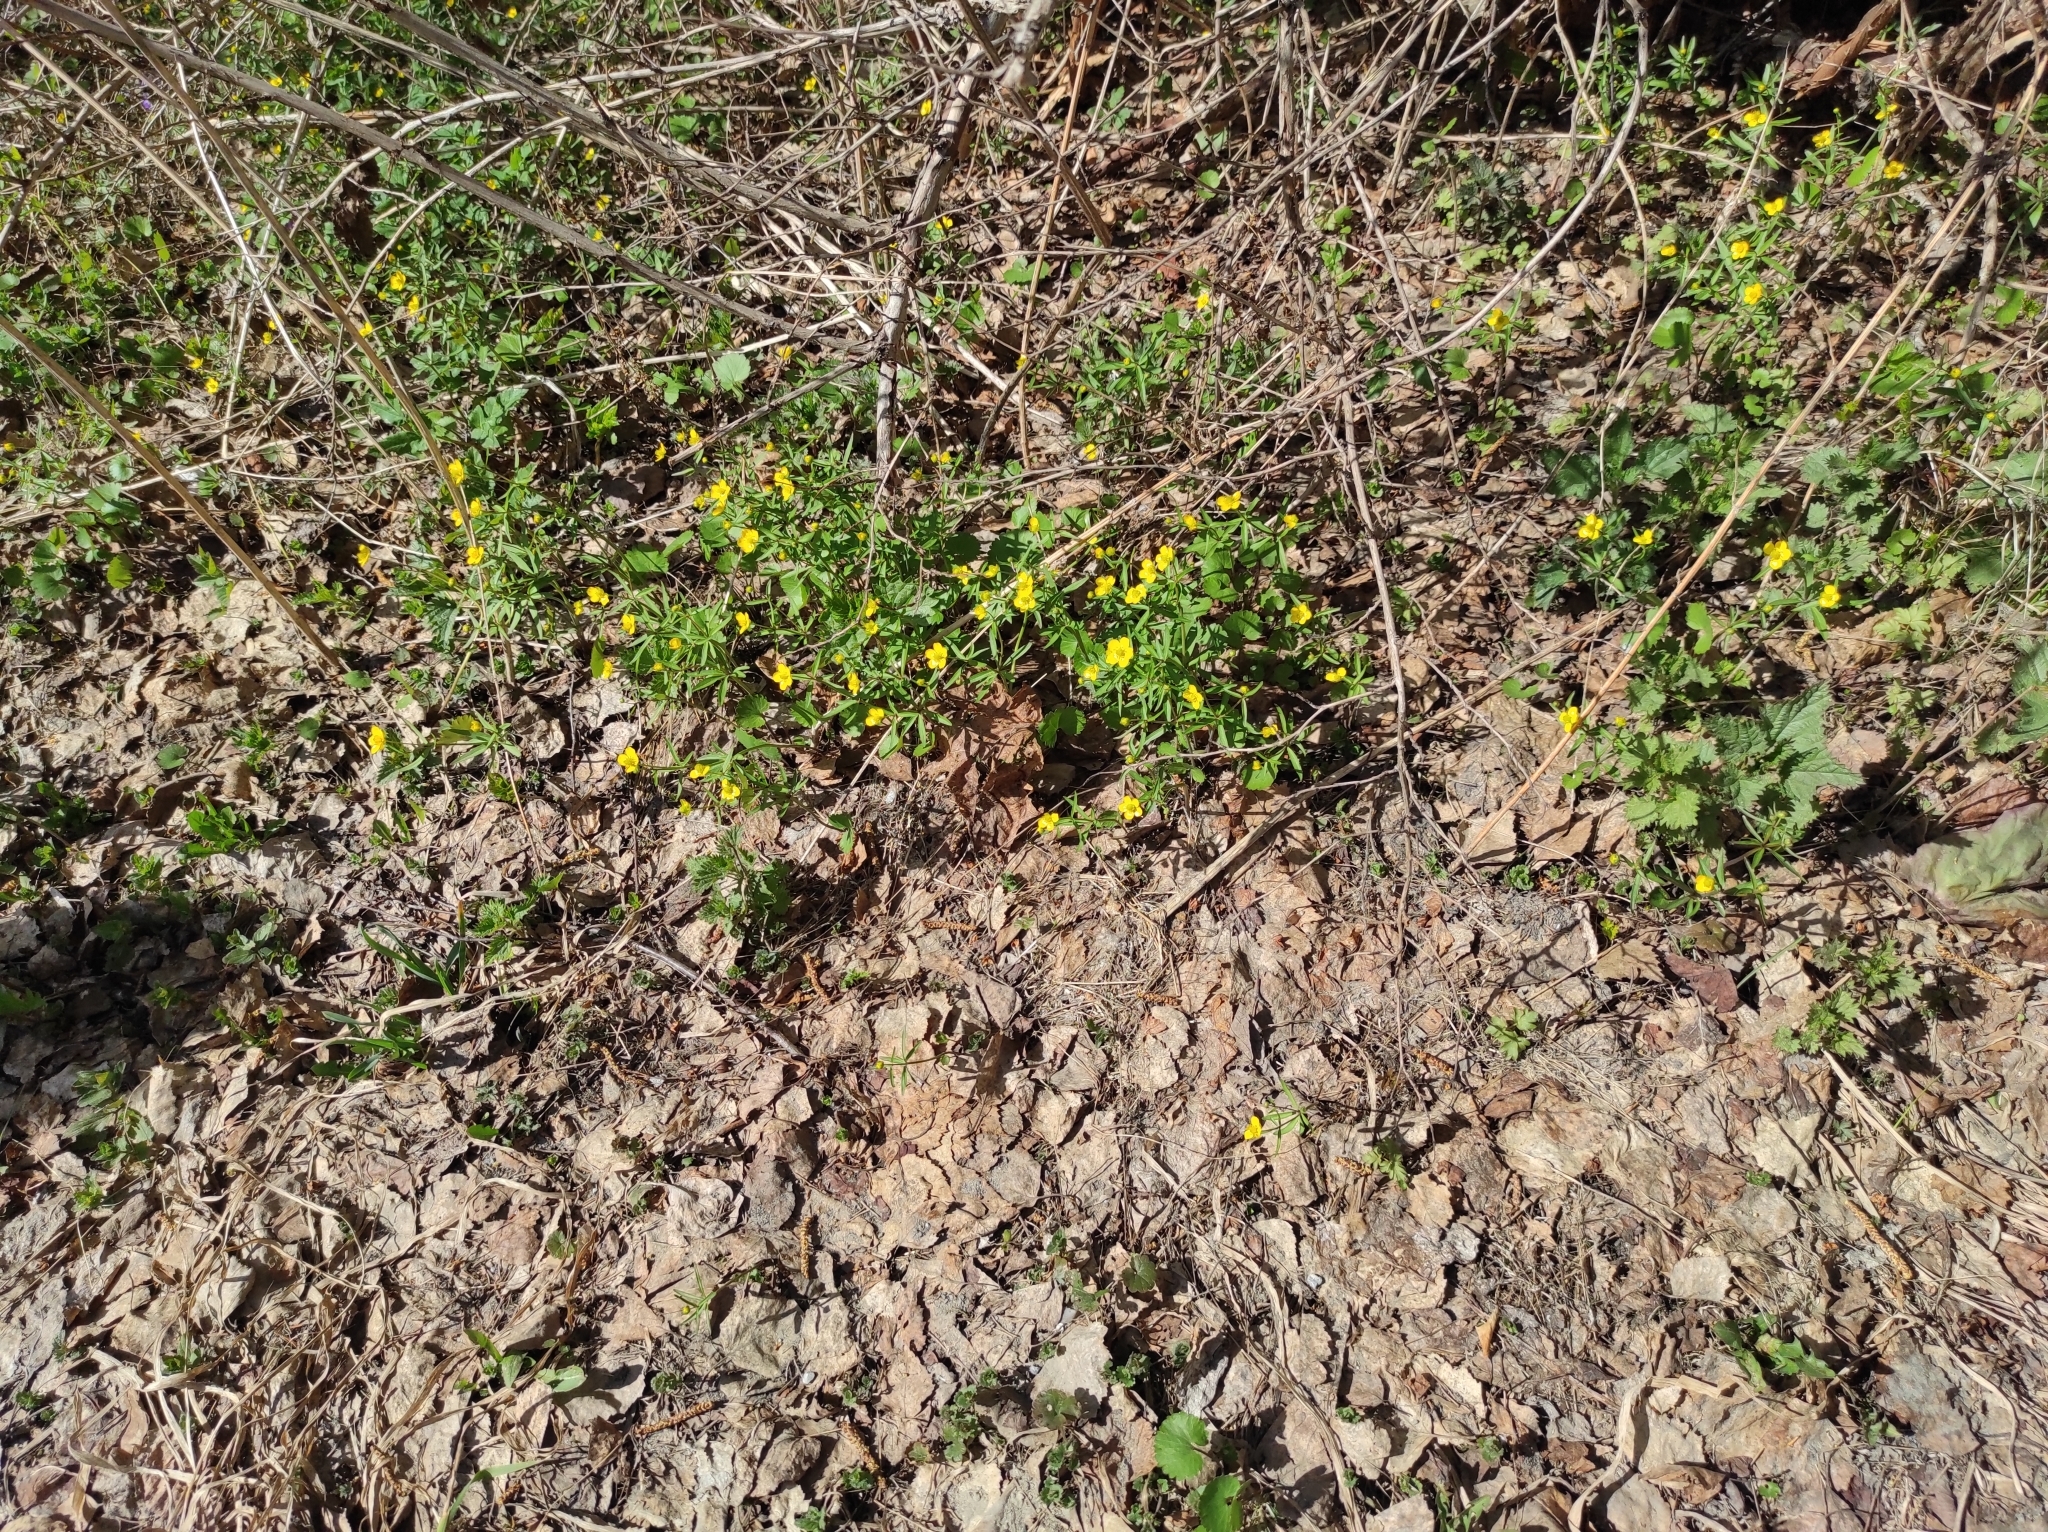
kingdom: Plantae
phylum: Tracheophyta
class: Magnoliopsida
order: Ranunculales
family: Ranunculaceae
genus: Ranunculus
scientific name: Ranunculus monophyllus
